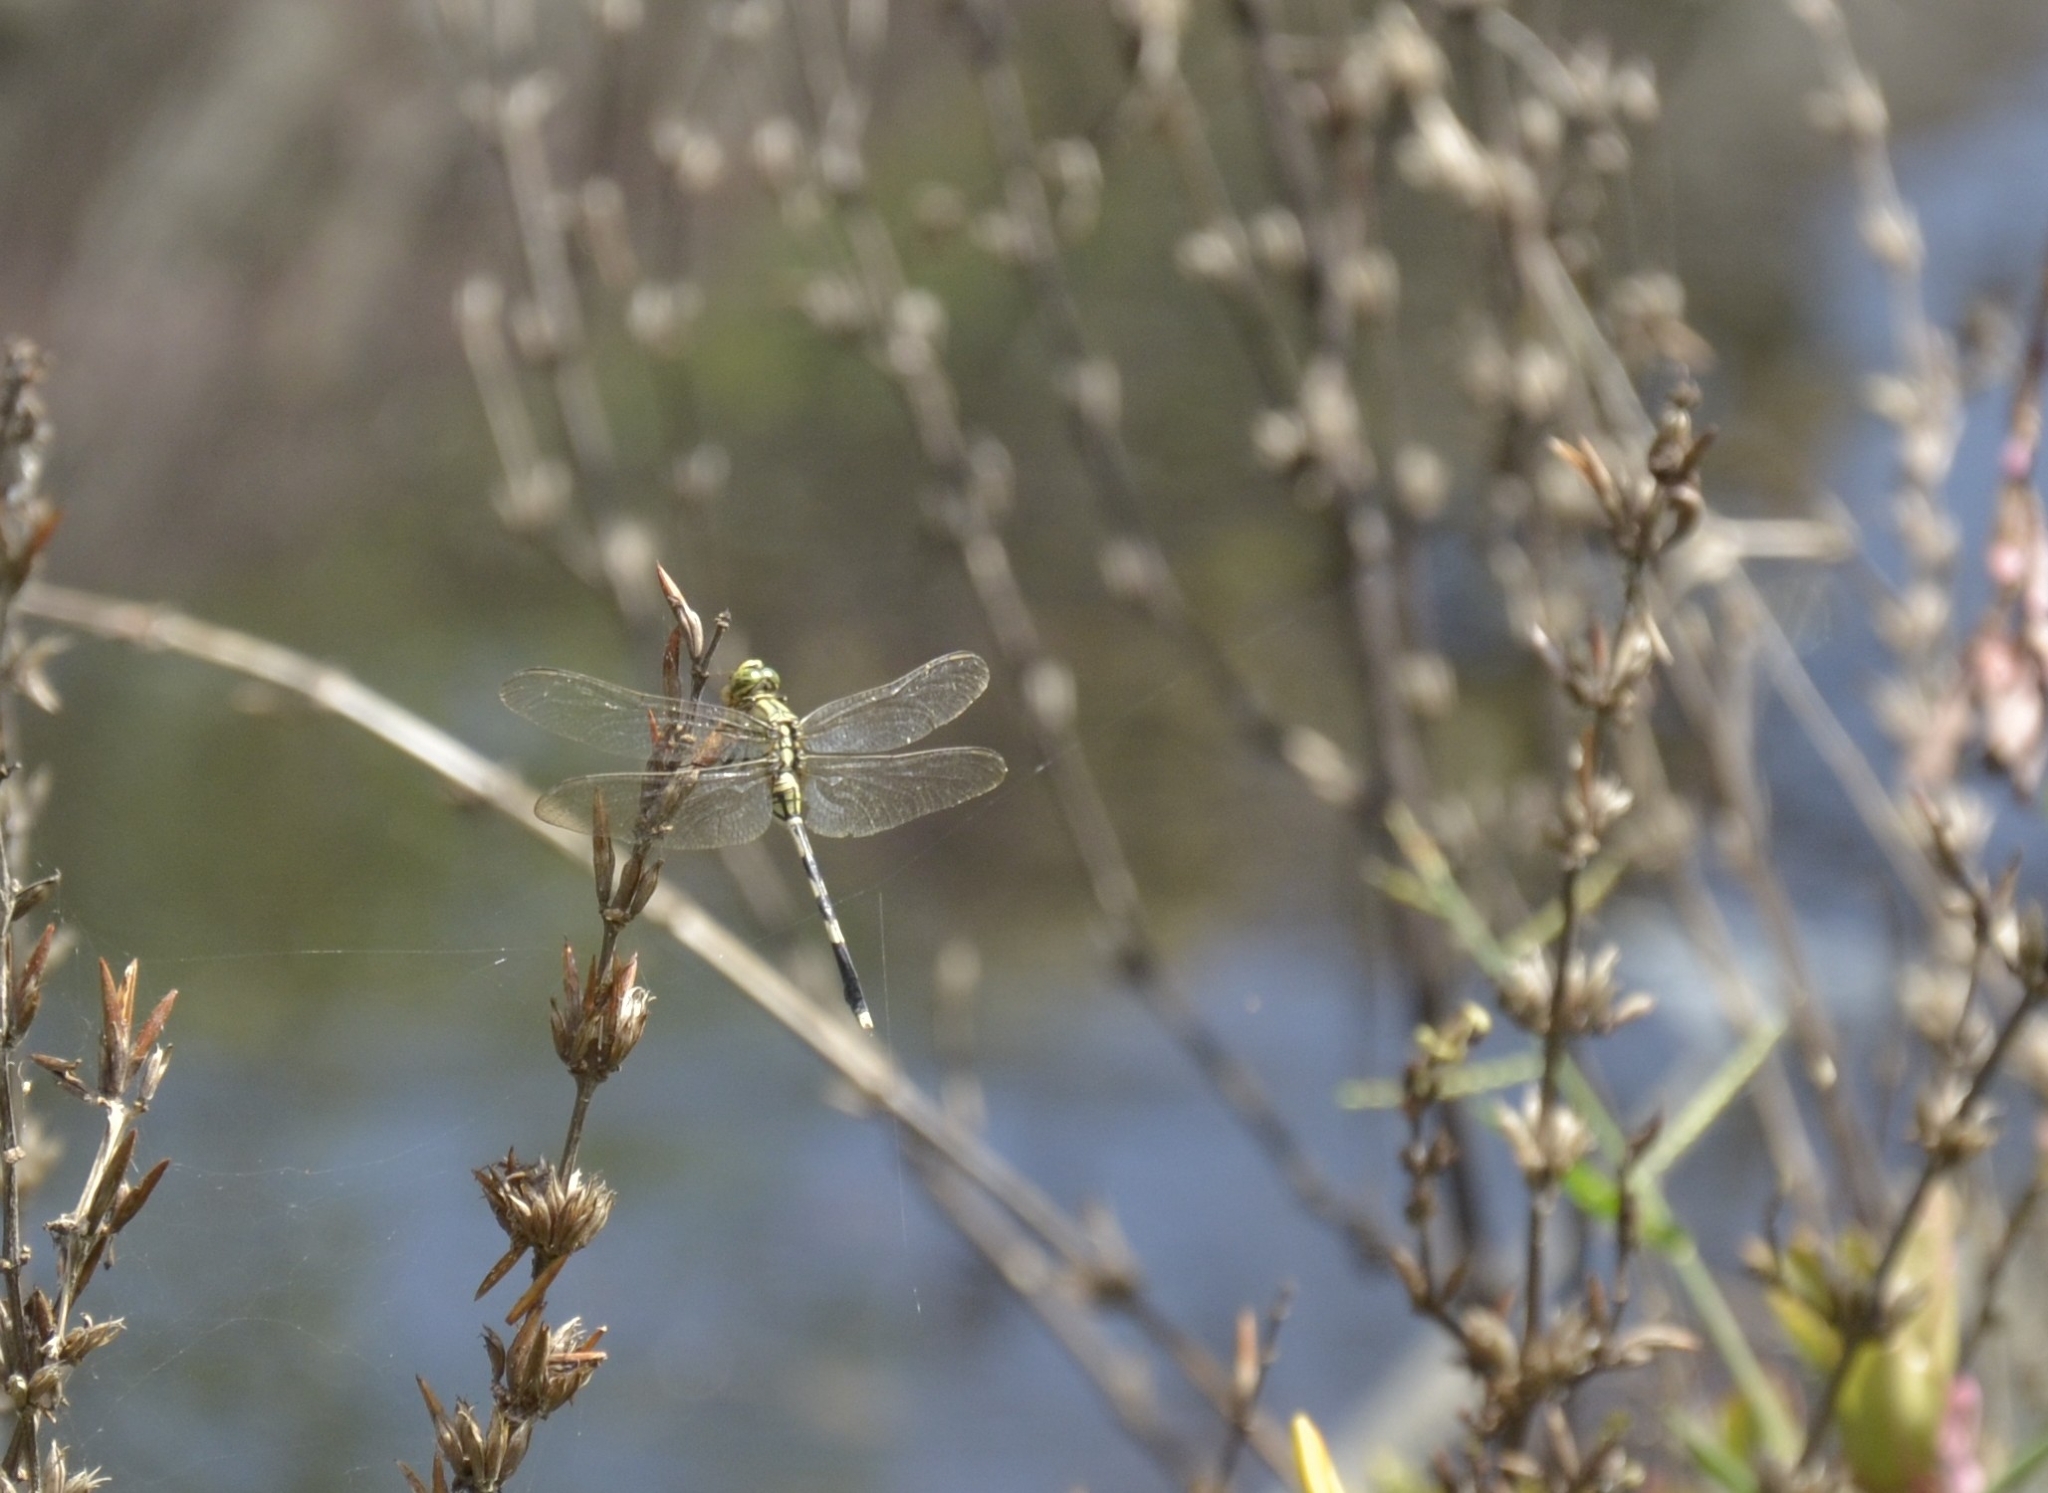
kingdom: Animalia
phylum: Arthropoda
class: Insecta
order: Odonata
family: Libellulidae
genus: Orthetrum
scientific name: Orthetrum sabina
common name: Slender skimmer
